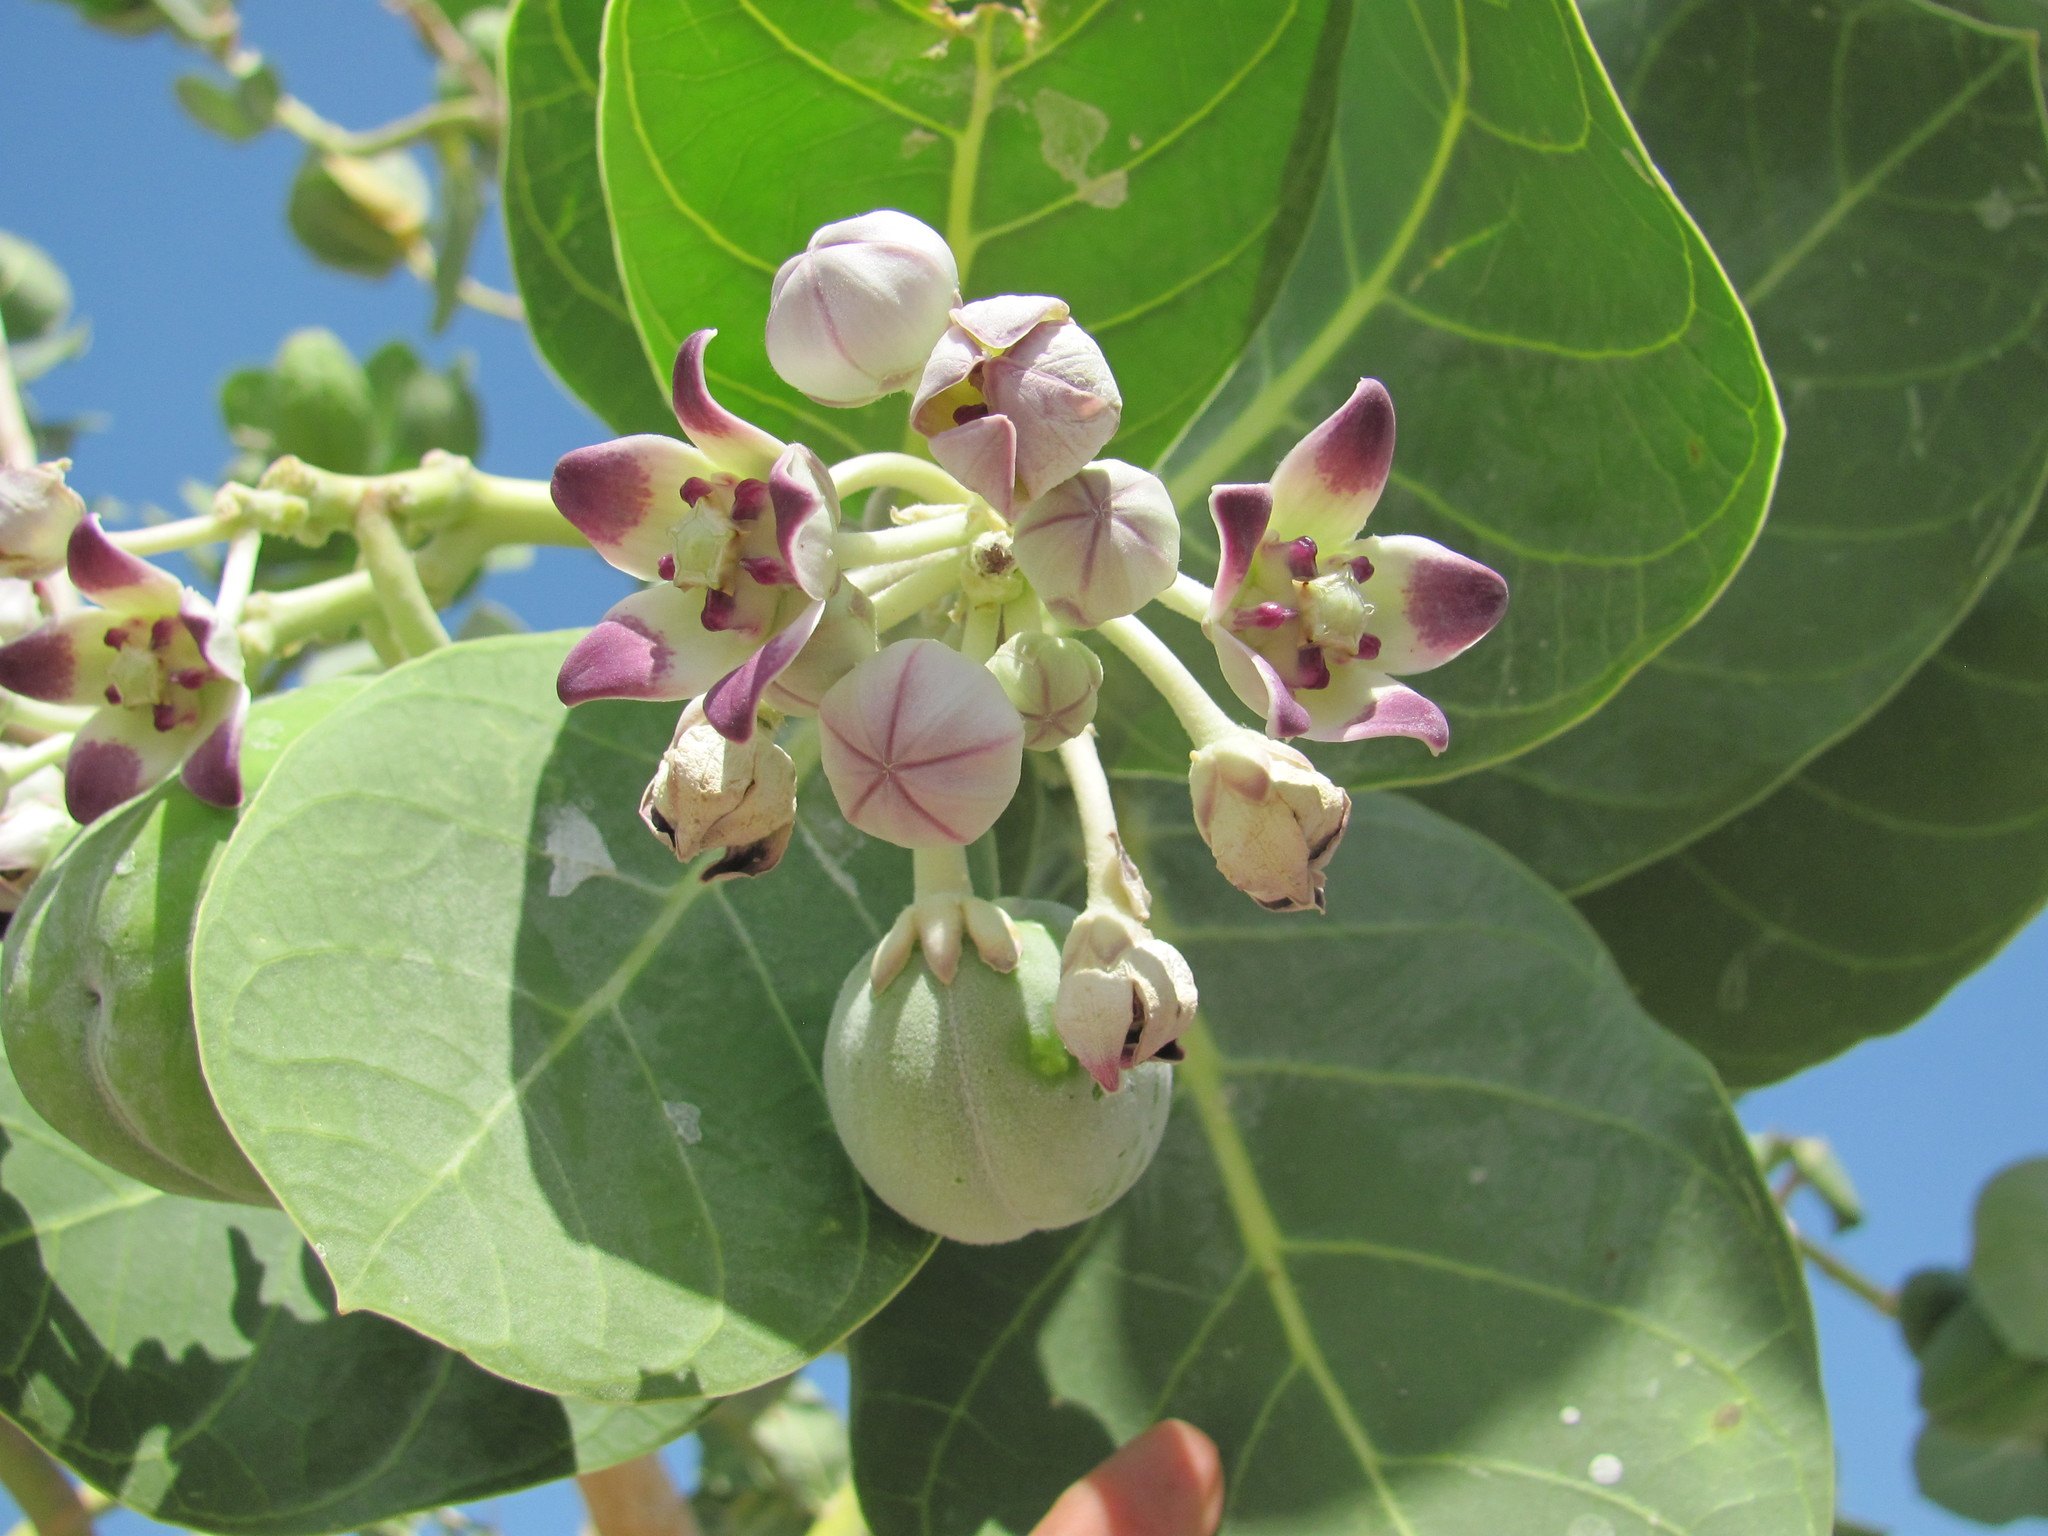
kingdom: Plantae
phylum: Tracheophyta
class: Magnoliopsida
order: Gentianales
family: Apocynaceae
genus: Calotropis
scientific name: Calotropis procera
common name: Roostertree
